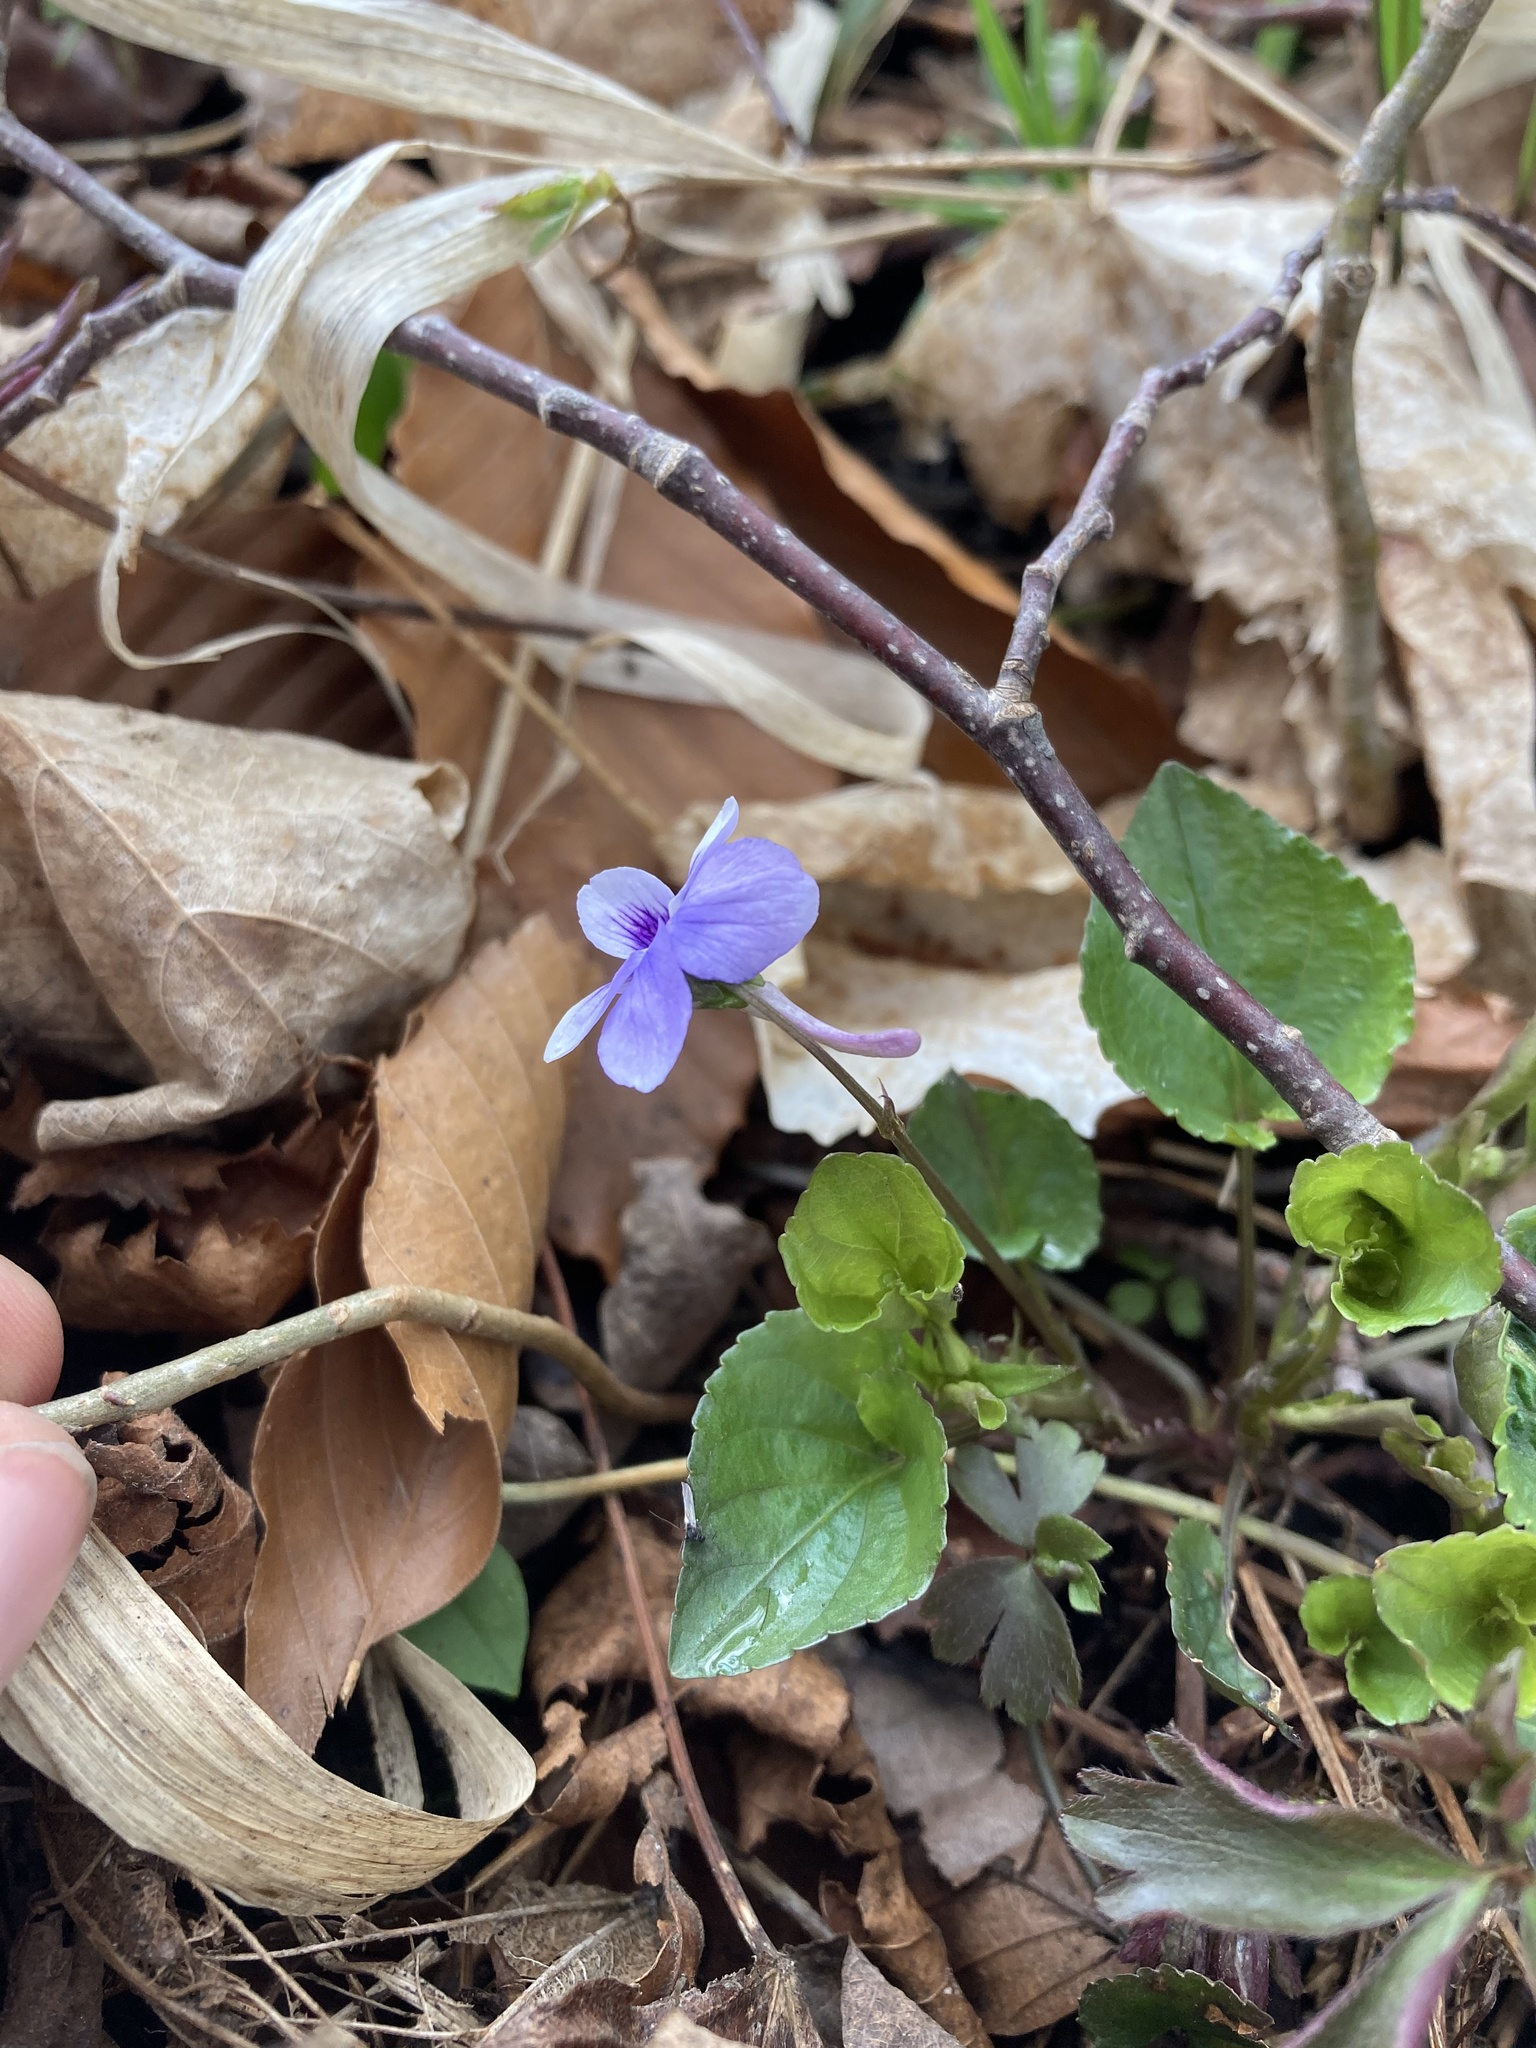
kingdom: Plantae
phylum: Tracheophyta
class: Magnoliopsida
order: Malpighiales
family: Violaceae
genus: Viola
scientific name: Viola rostrata
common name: Long-spur violet
